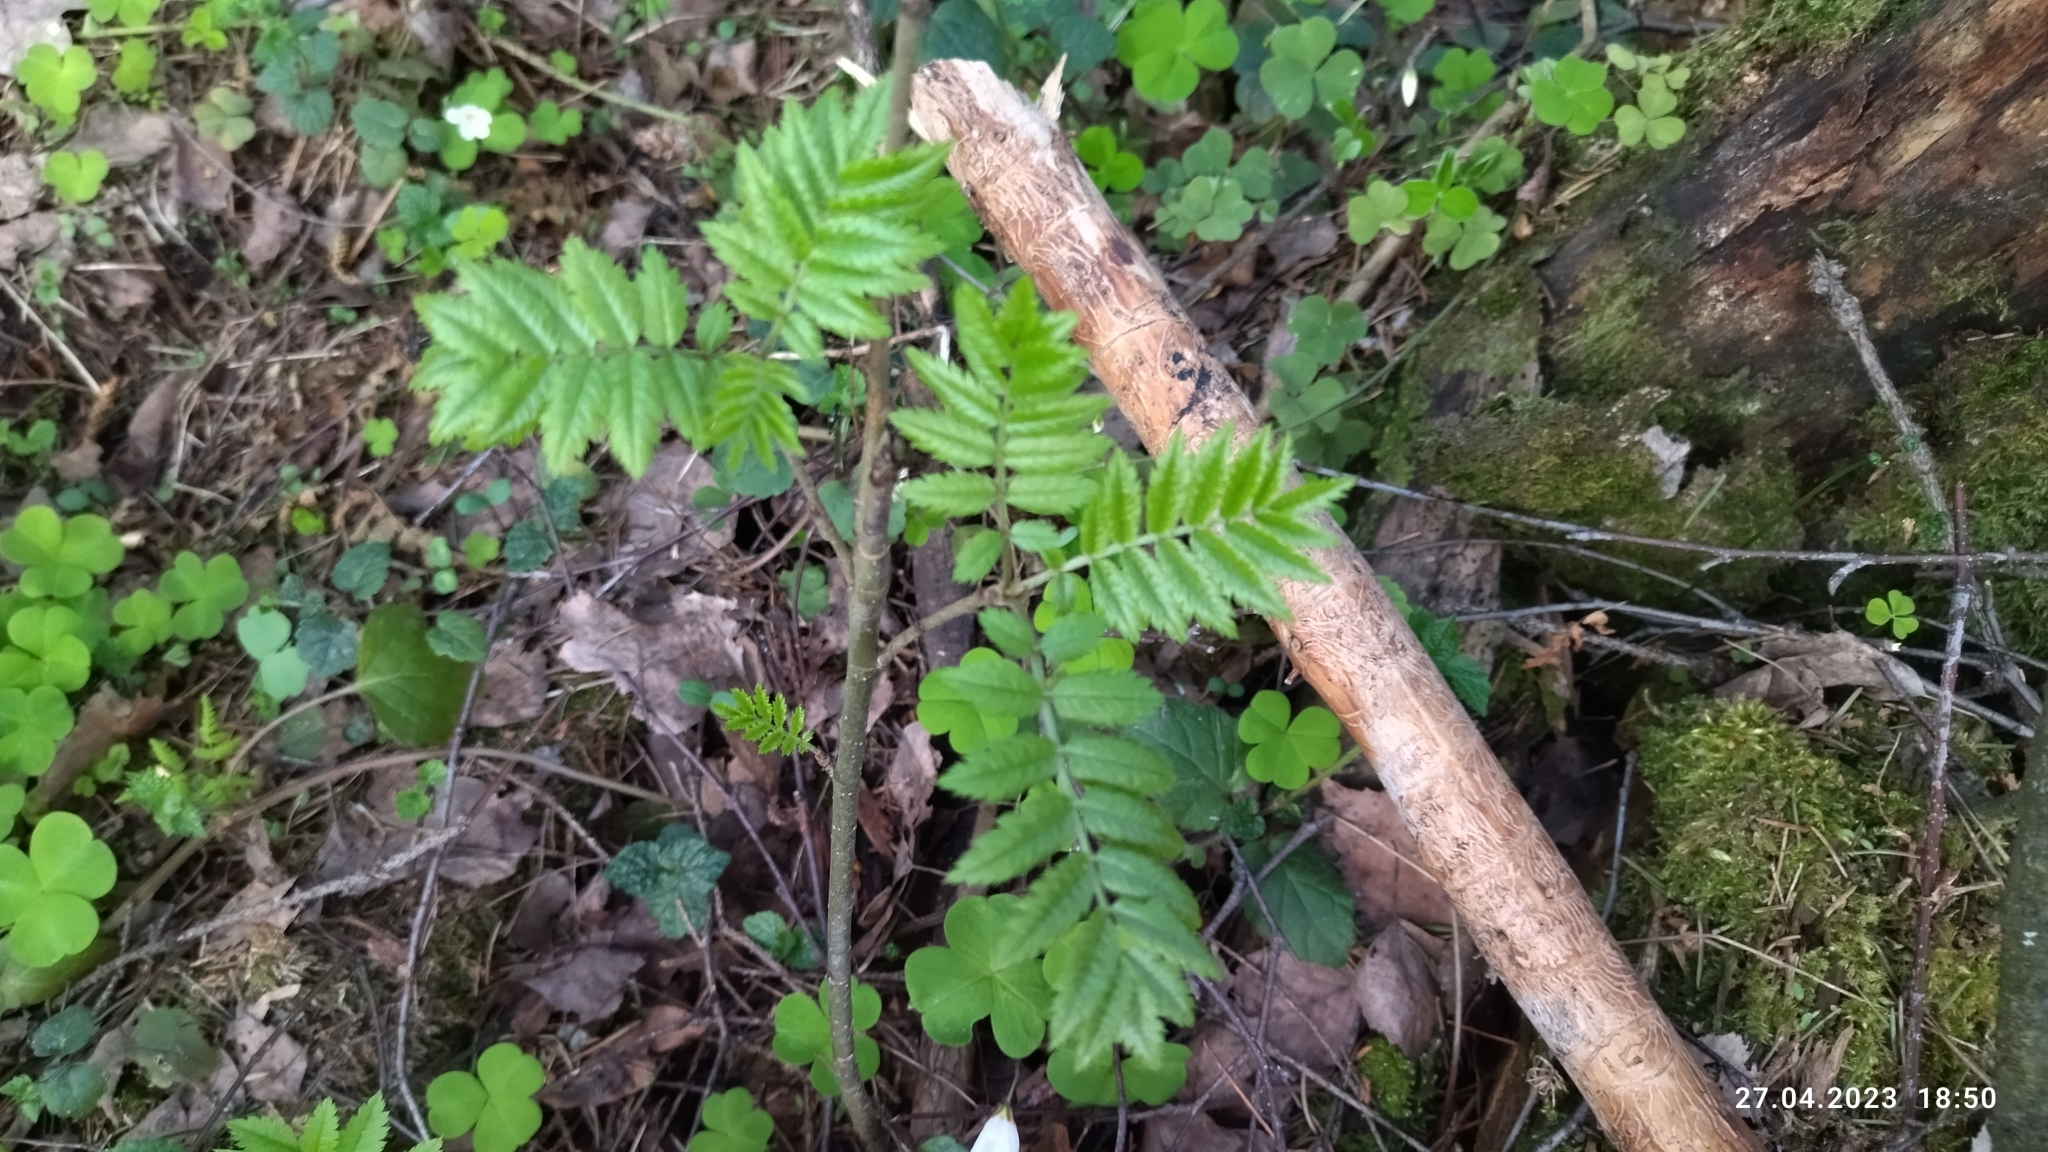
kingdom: Plantae
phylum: Tracheophyta
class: Magnoliopsida
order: Rosales
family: Rosaceae
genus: Sorbus
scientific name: Sorbus aucuparia
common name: Rowan
